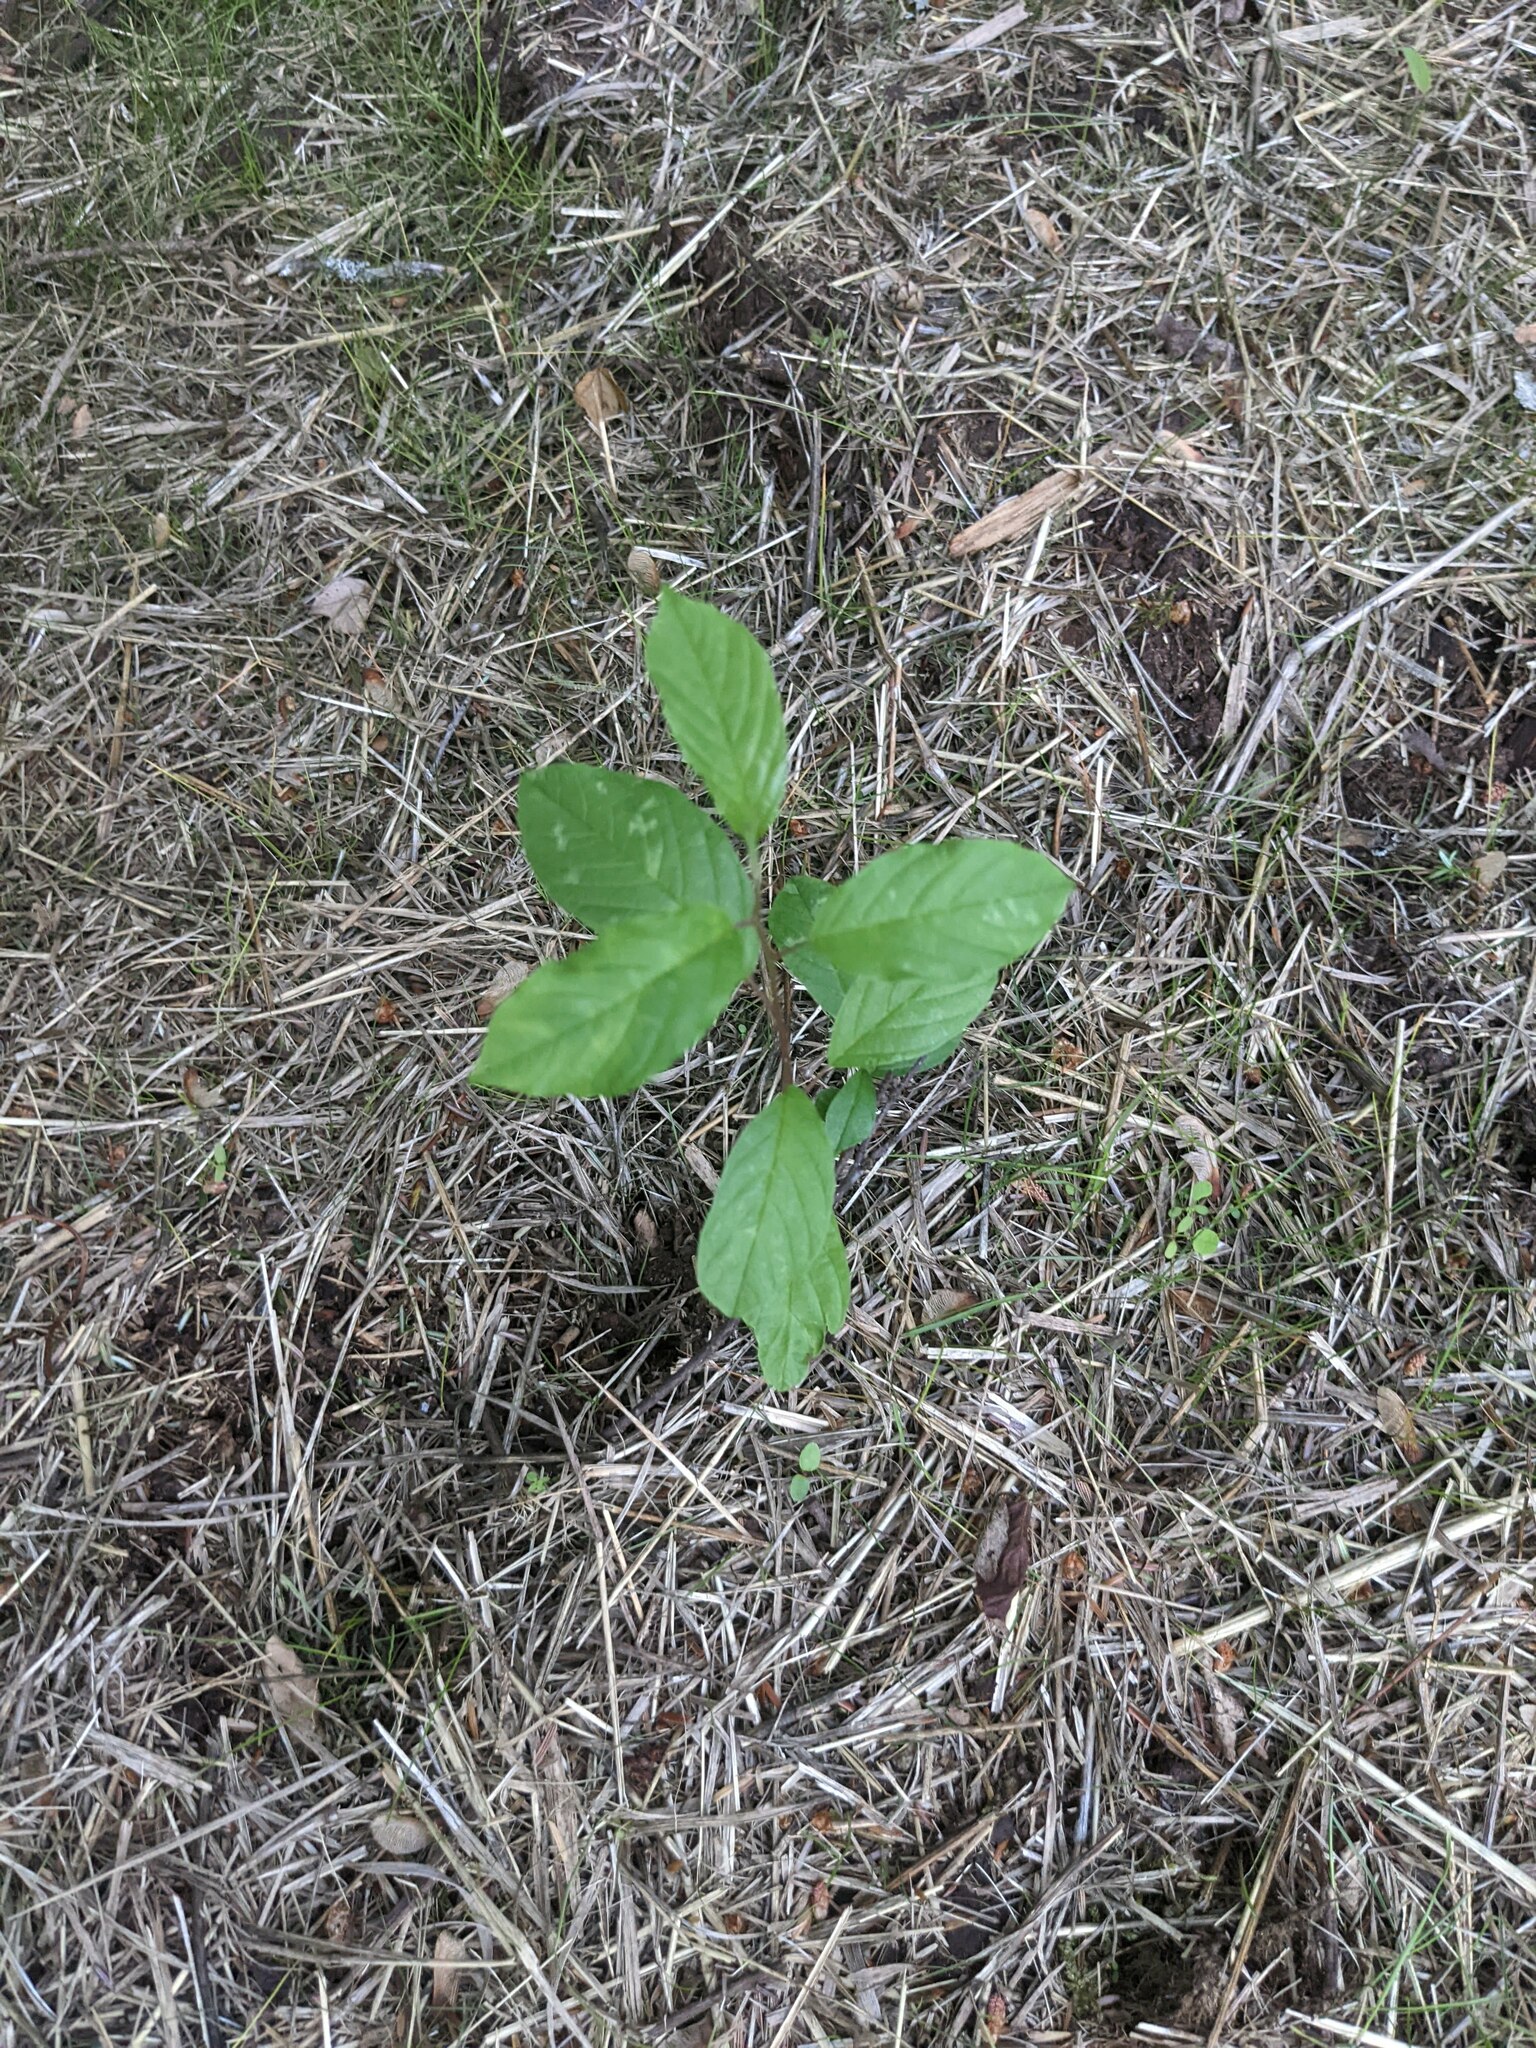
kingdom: Plantae
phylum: Tracheophyta
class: Magnoliopsida
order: Rosales
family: Rhamnaceae
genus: Frangula
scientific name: Frangula alnus
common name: Alder buckthorn
